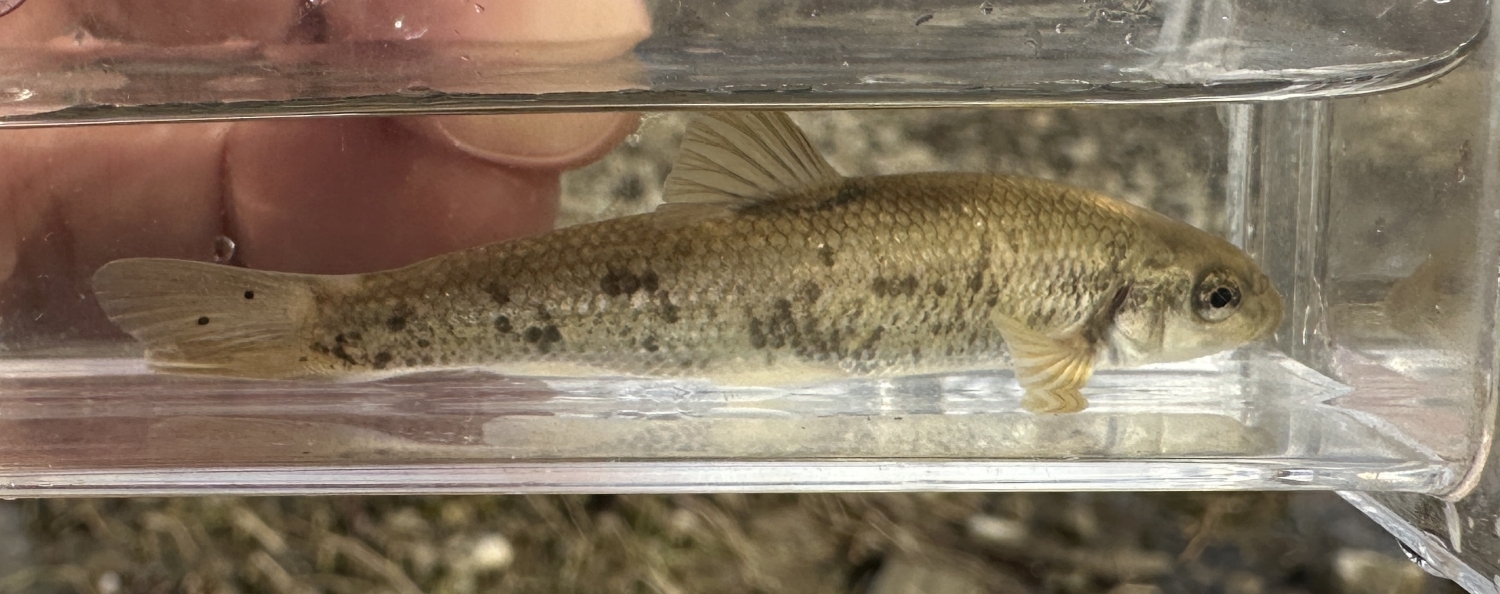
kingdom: Animalia
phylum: Chordata
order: Cypriniformes
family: Cyprinidae
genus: Campostoma
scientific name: Campostoma anomalum
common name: Central stoneroller
